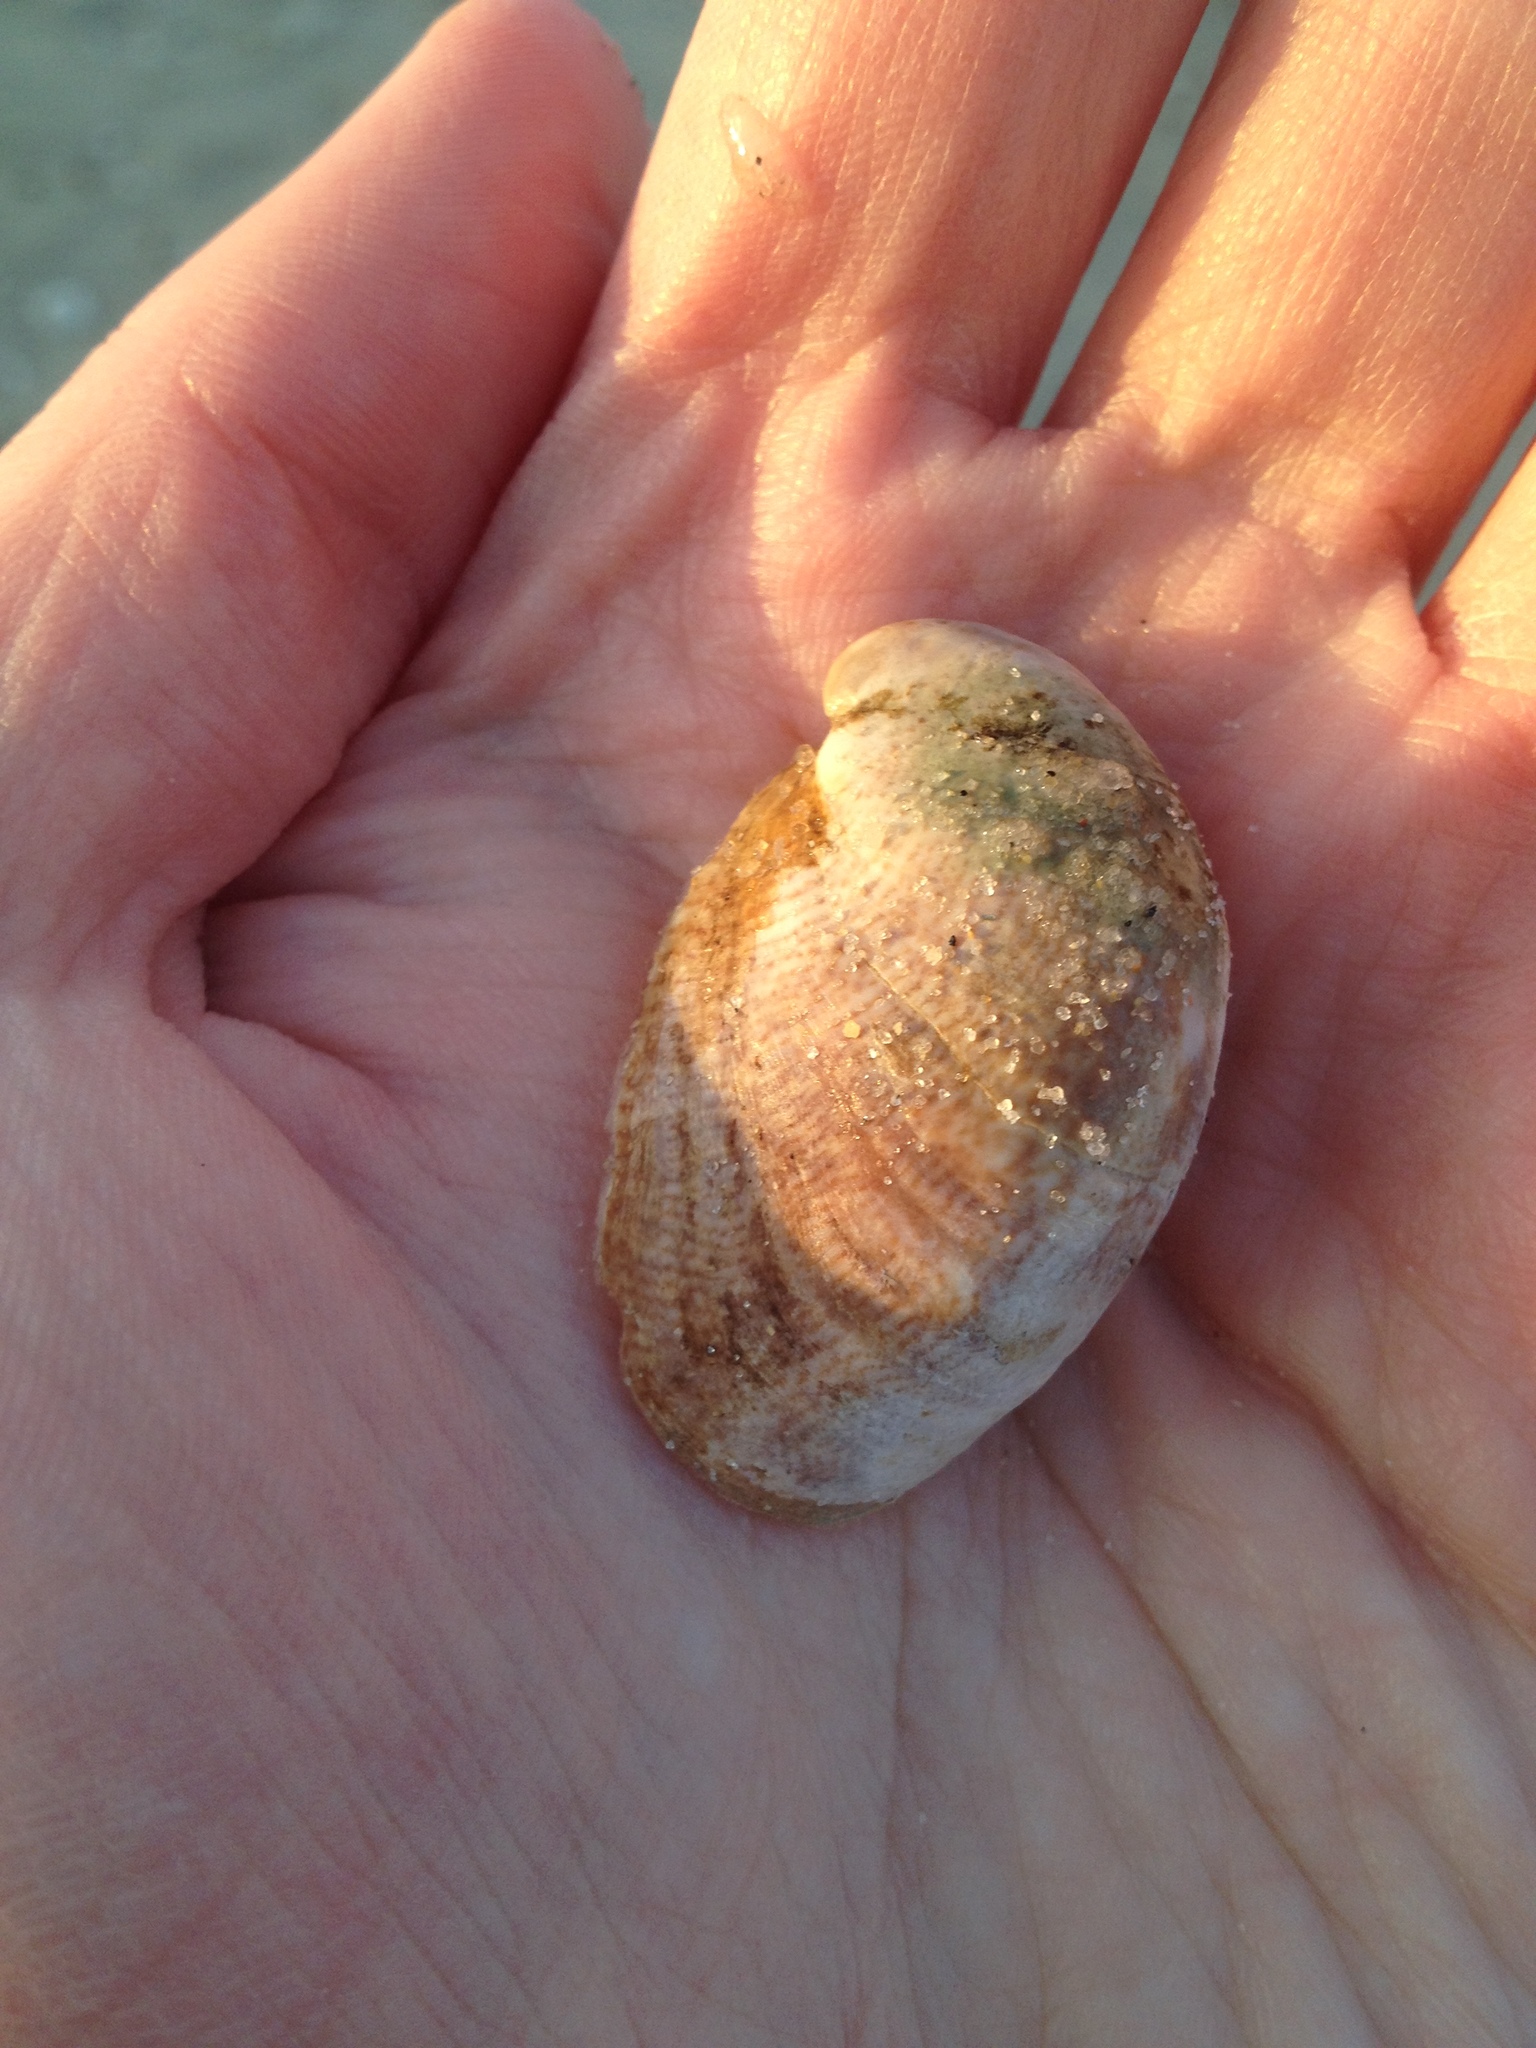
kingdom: Animalia
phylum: Mollusca
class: Gastropoda
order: Littorinimorpha
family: Calyptraeidae
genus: Crepidula
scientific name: Crepidula fornicata
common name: Slipper limpet
